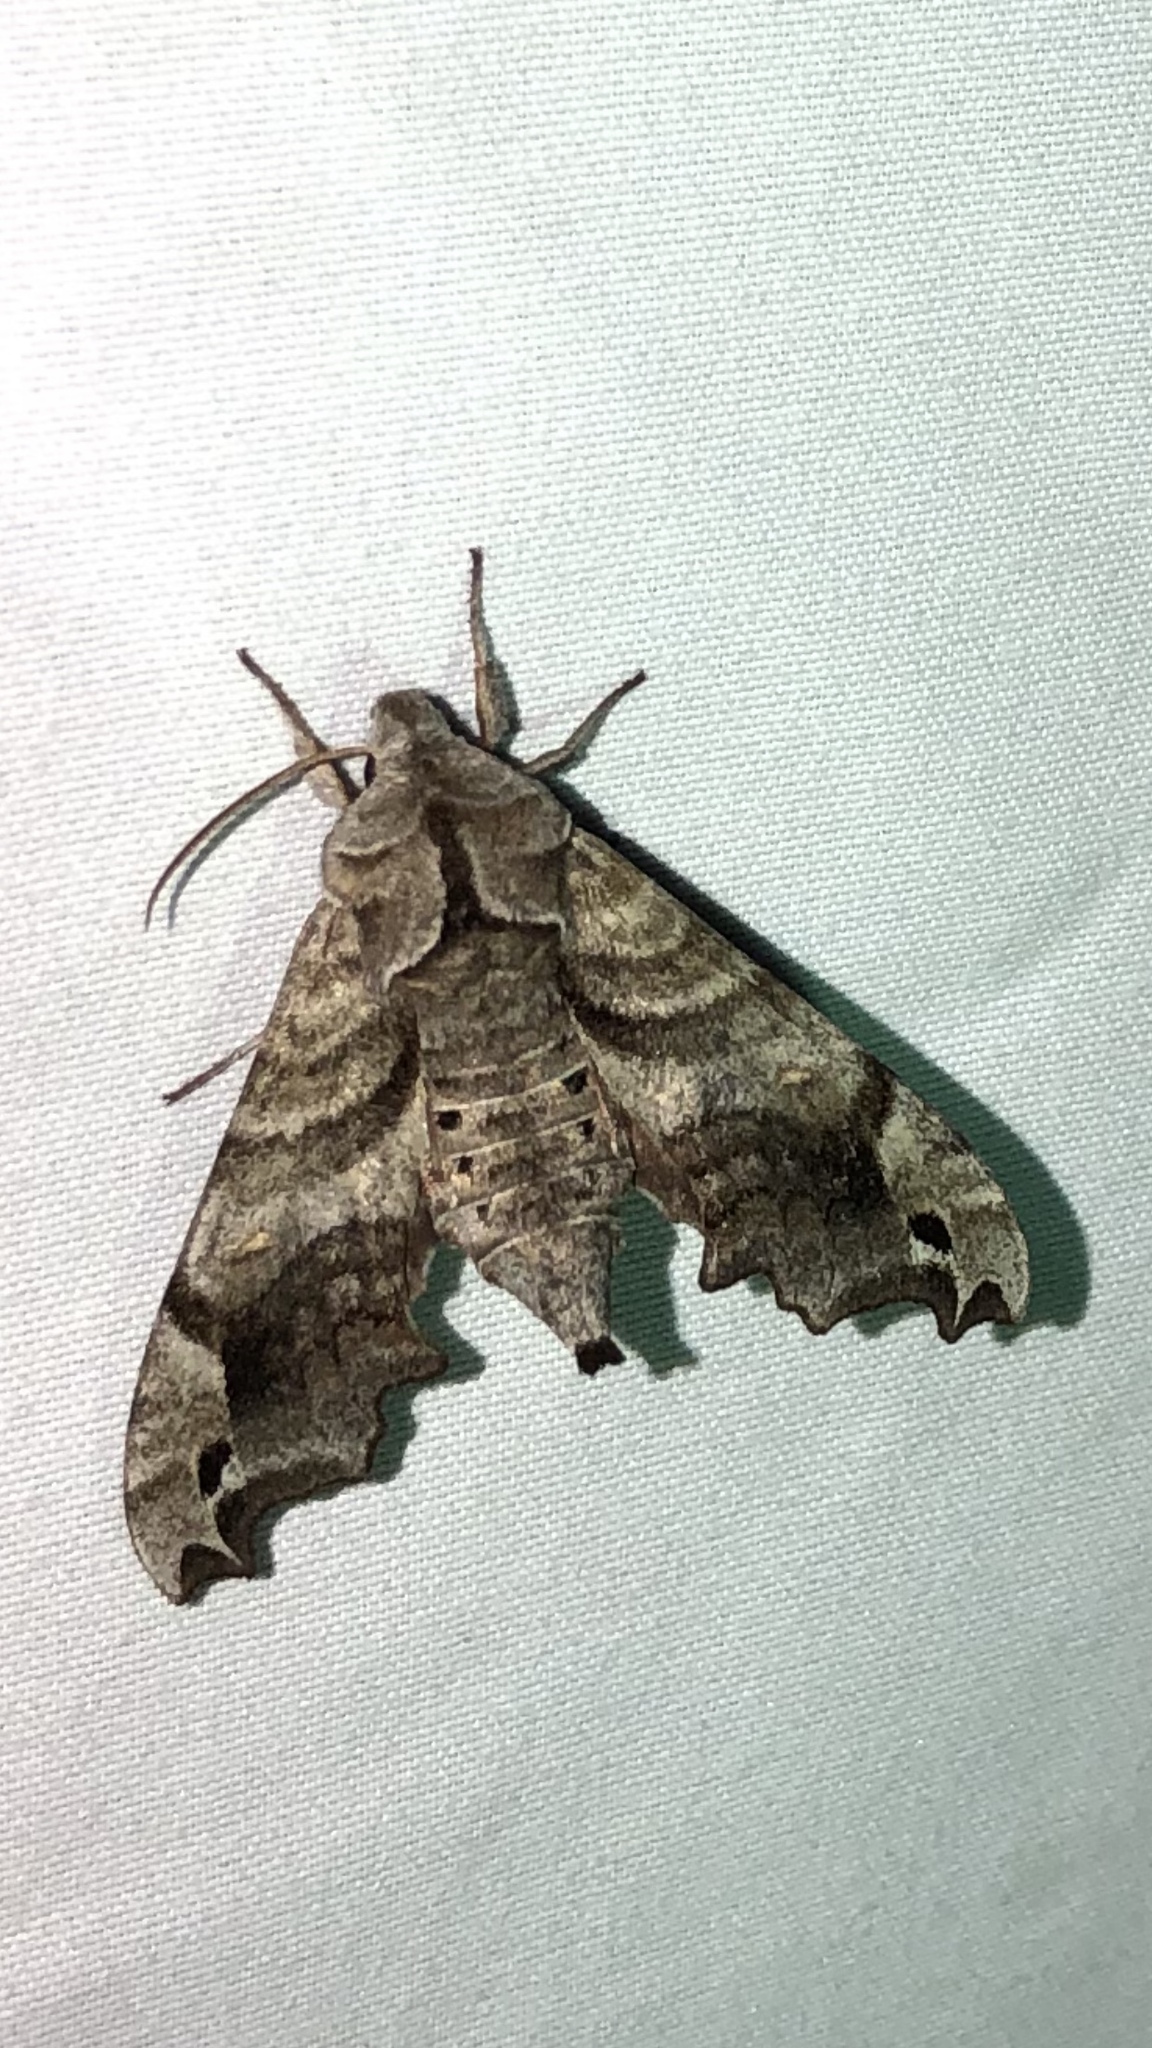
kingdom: Animalia
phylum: Arthropoda
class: Insecta
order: Lepidoptera
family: Sphingidae
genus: Deidamia
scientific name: Deidamia inscriptum
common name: Lettered sphinx
